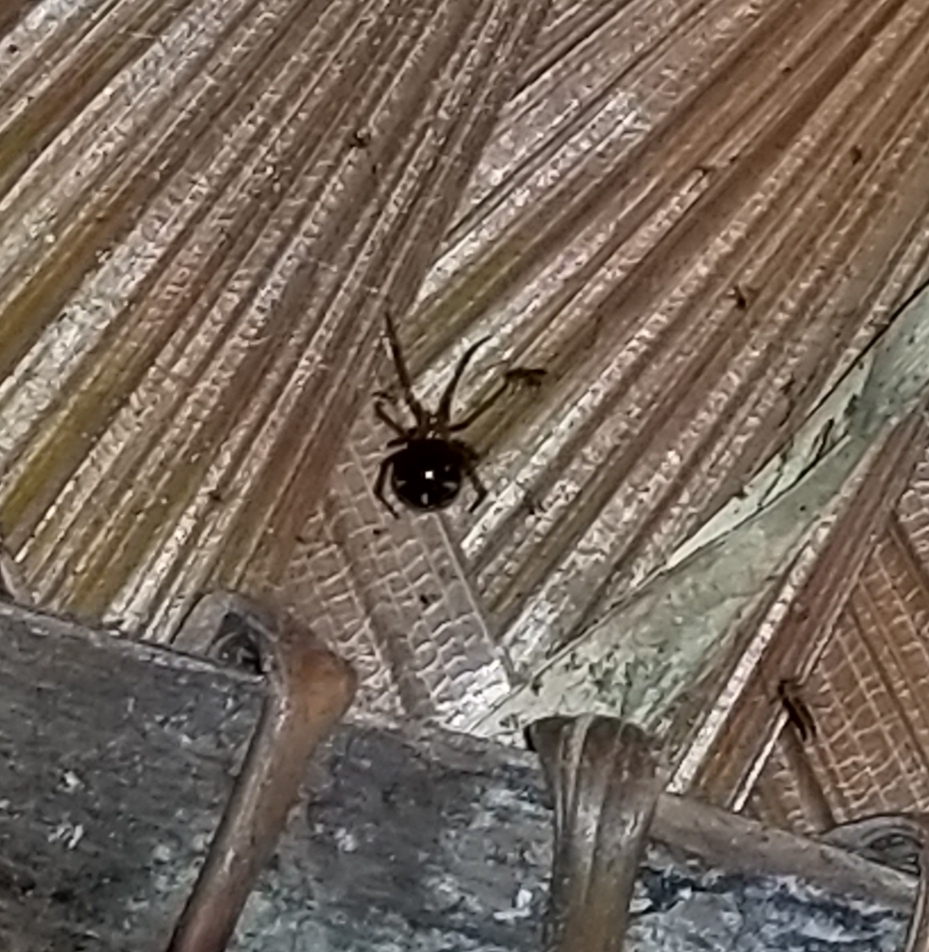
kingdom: Animalia
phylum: Arthropoda
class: Arachnida
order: Araneae
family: Theridiidae
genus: Nesticodes
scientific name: Nesticodes rufipes
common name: Cobweb spiders
